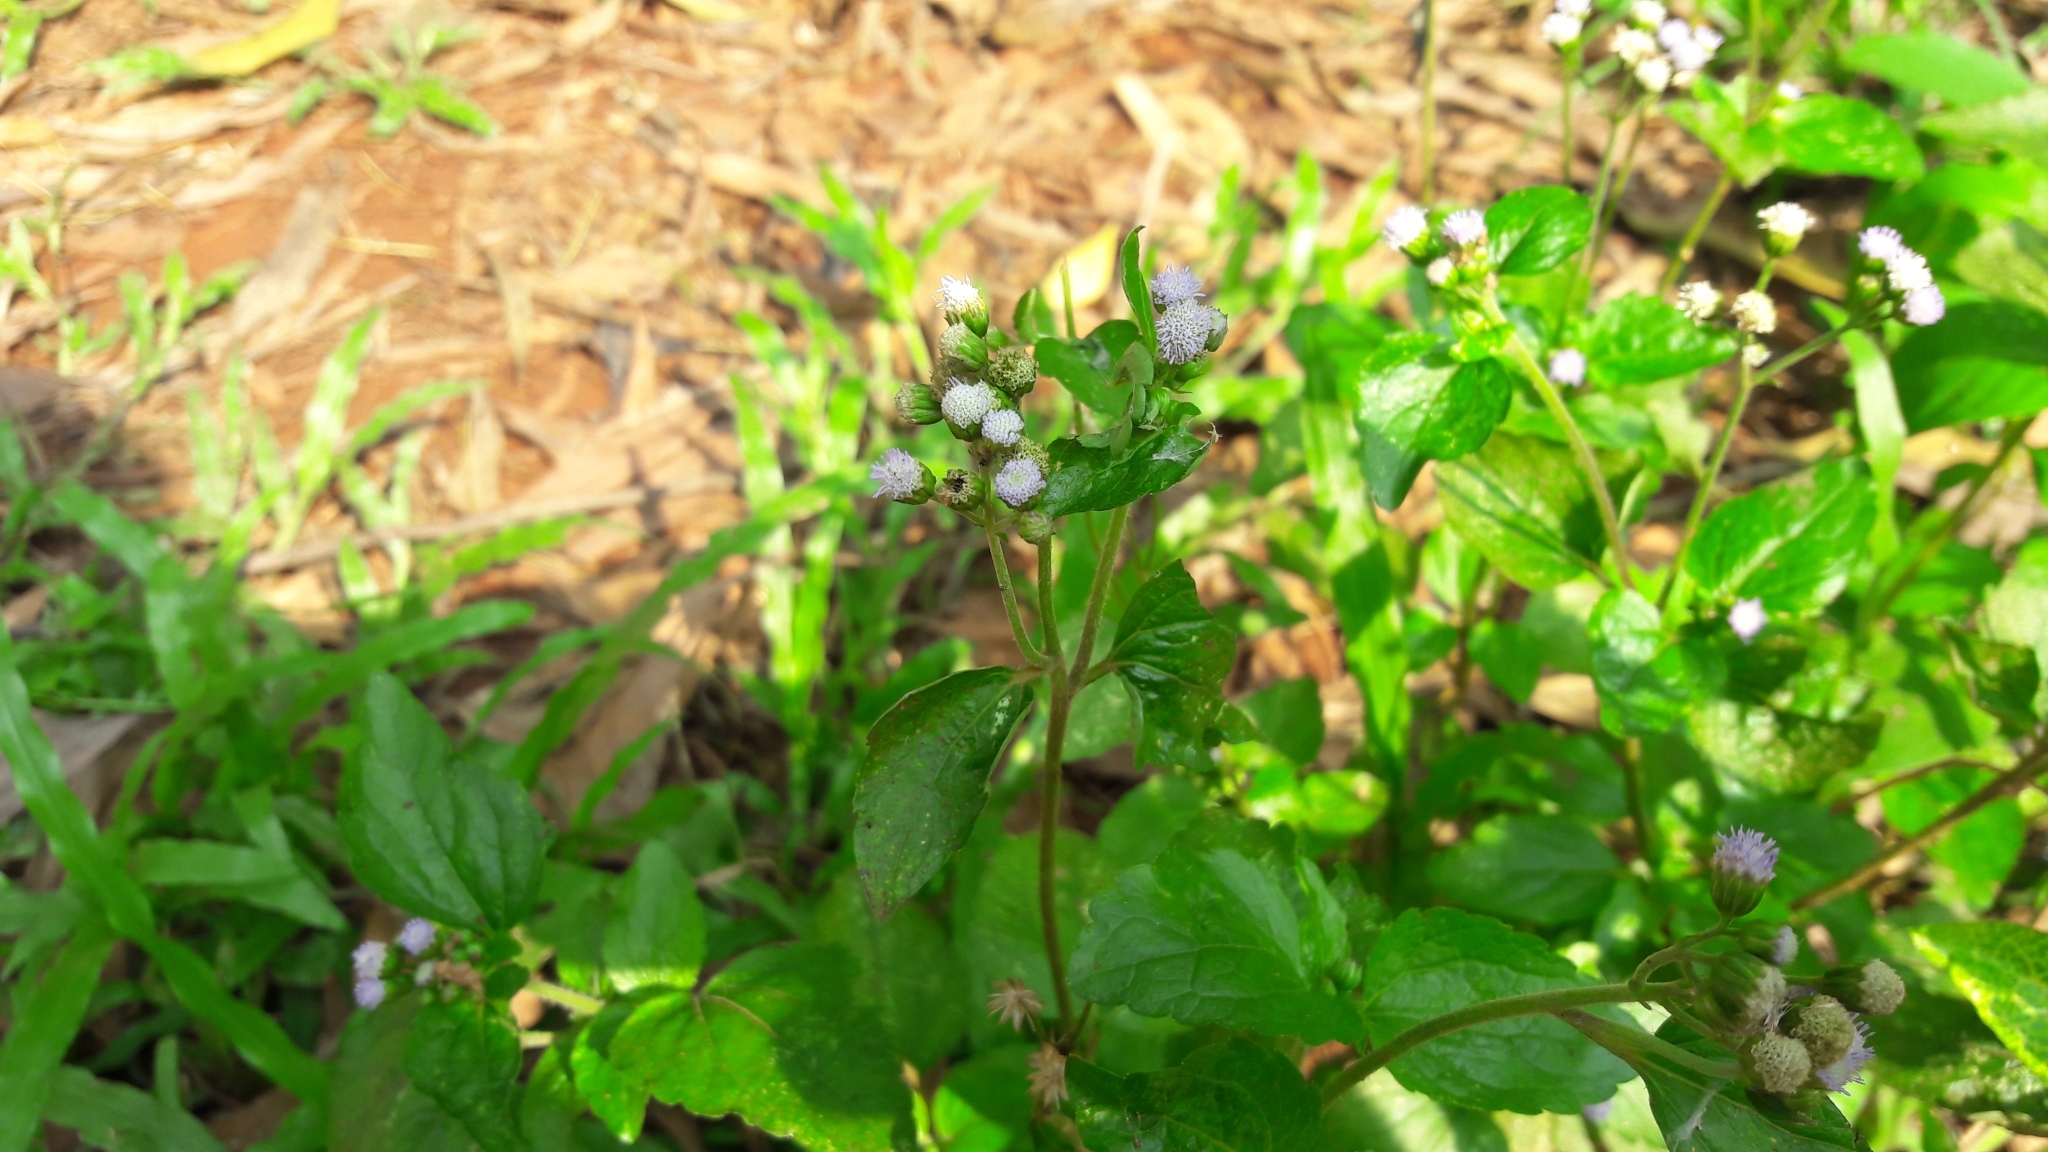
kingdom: Plantae
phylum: Tracheophyta
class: Magnoliopsida
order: Asterales
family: Asteraceae
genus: Ageratum
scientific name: Ageratum conyzoides
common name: Tropical whiteweed
